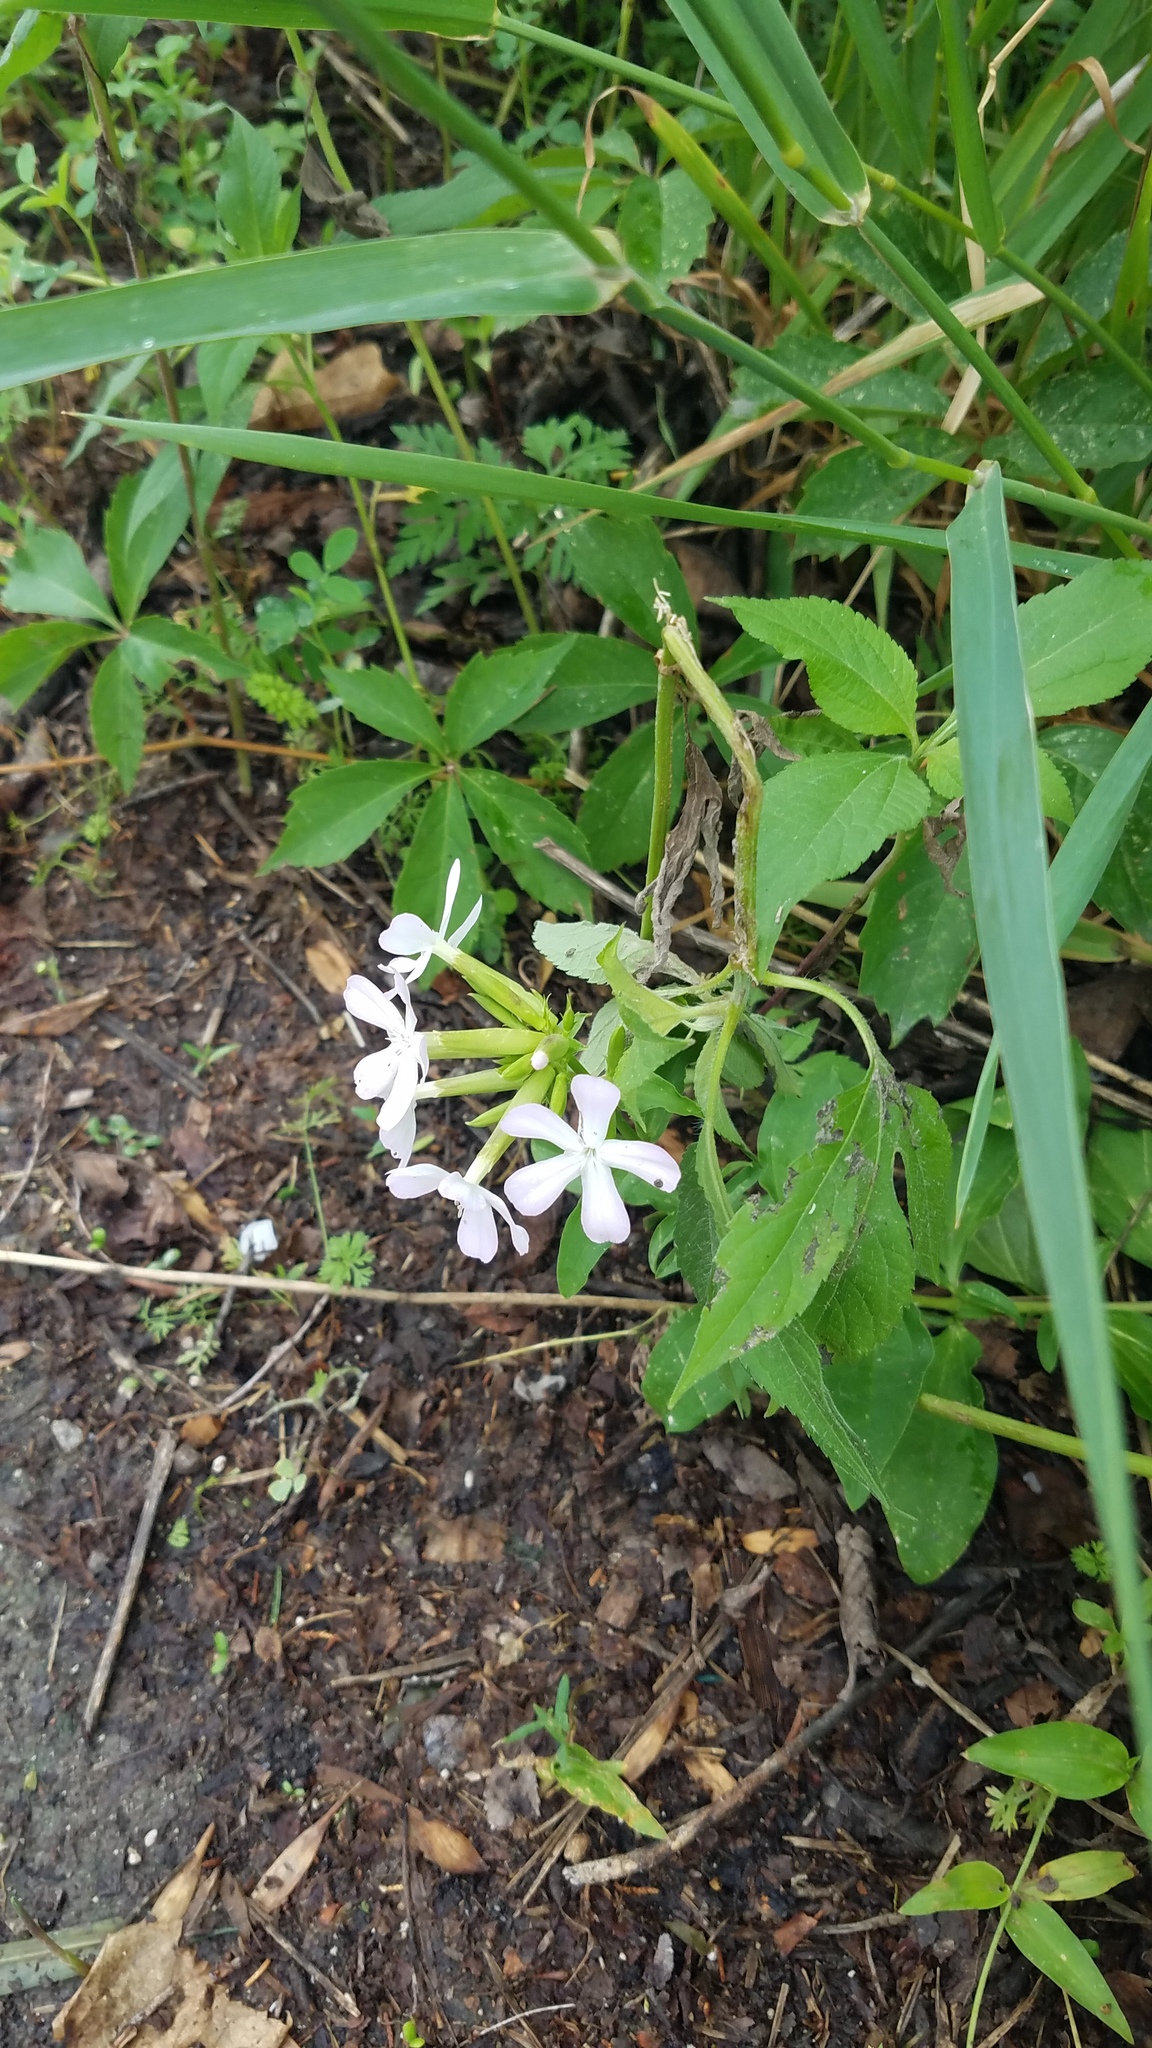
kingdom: Plantae
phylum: Tracheophyta
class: Magnoliopsida
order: Caryophyllales
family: Caryophyllaceae
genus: Saponaria
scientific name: Saponaria officinalis
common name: Soapwort
